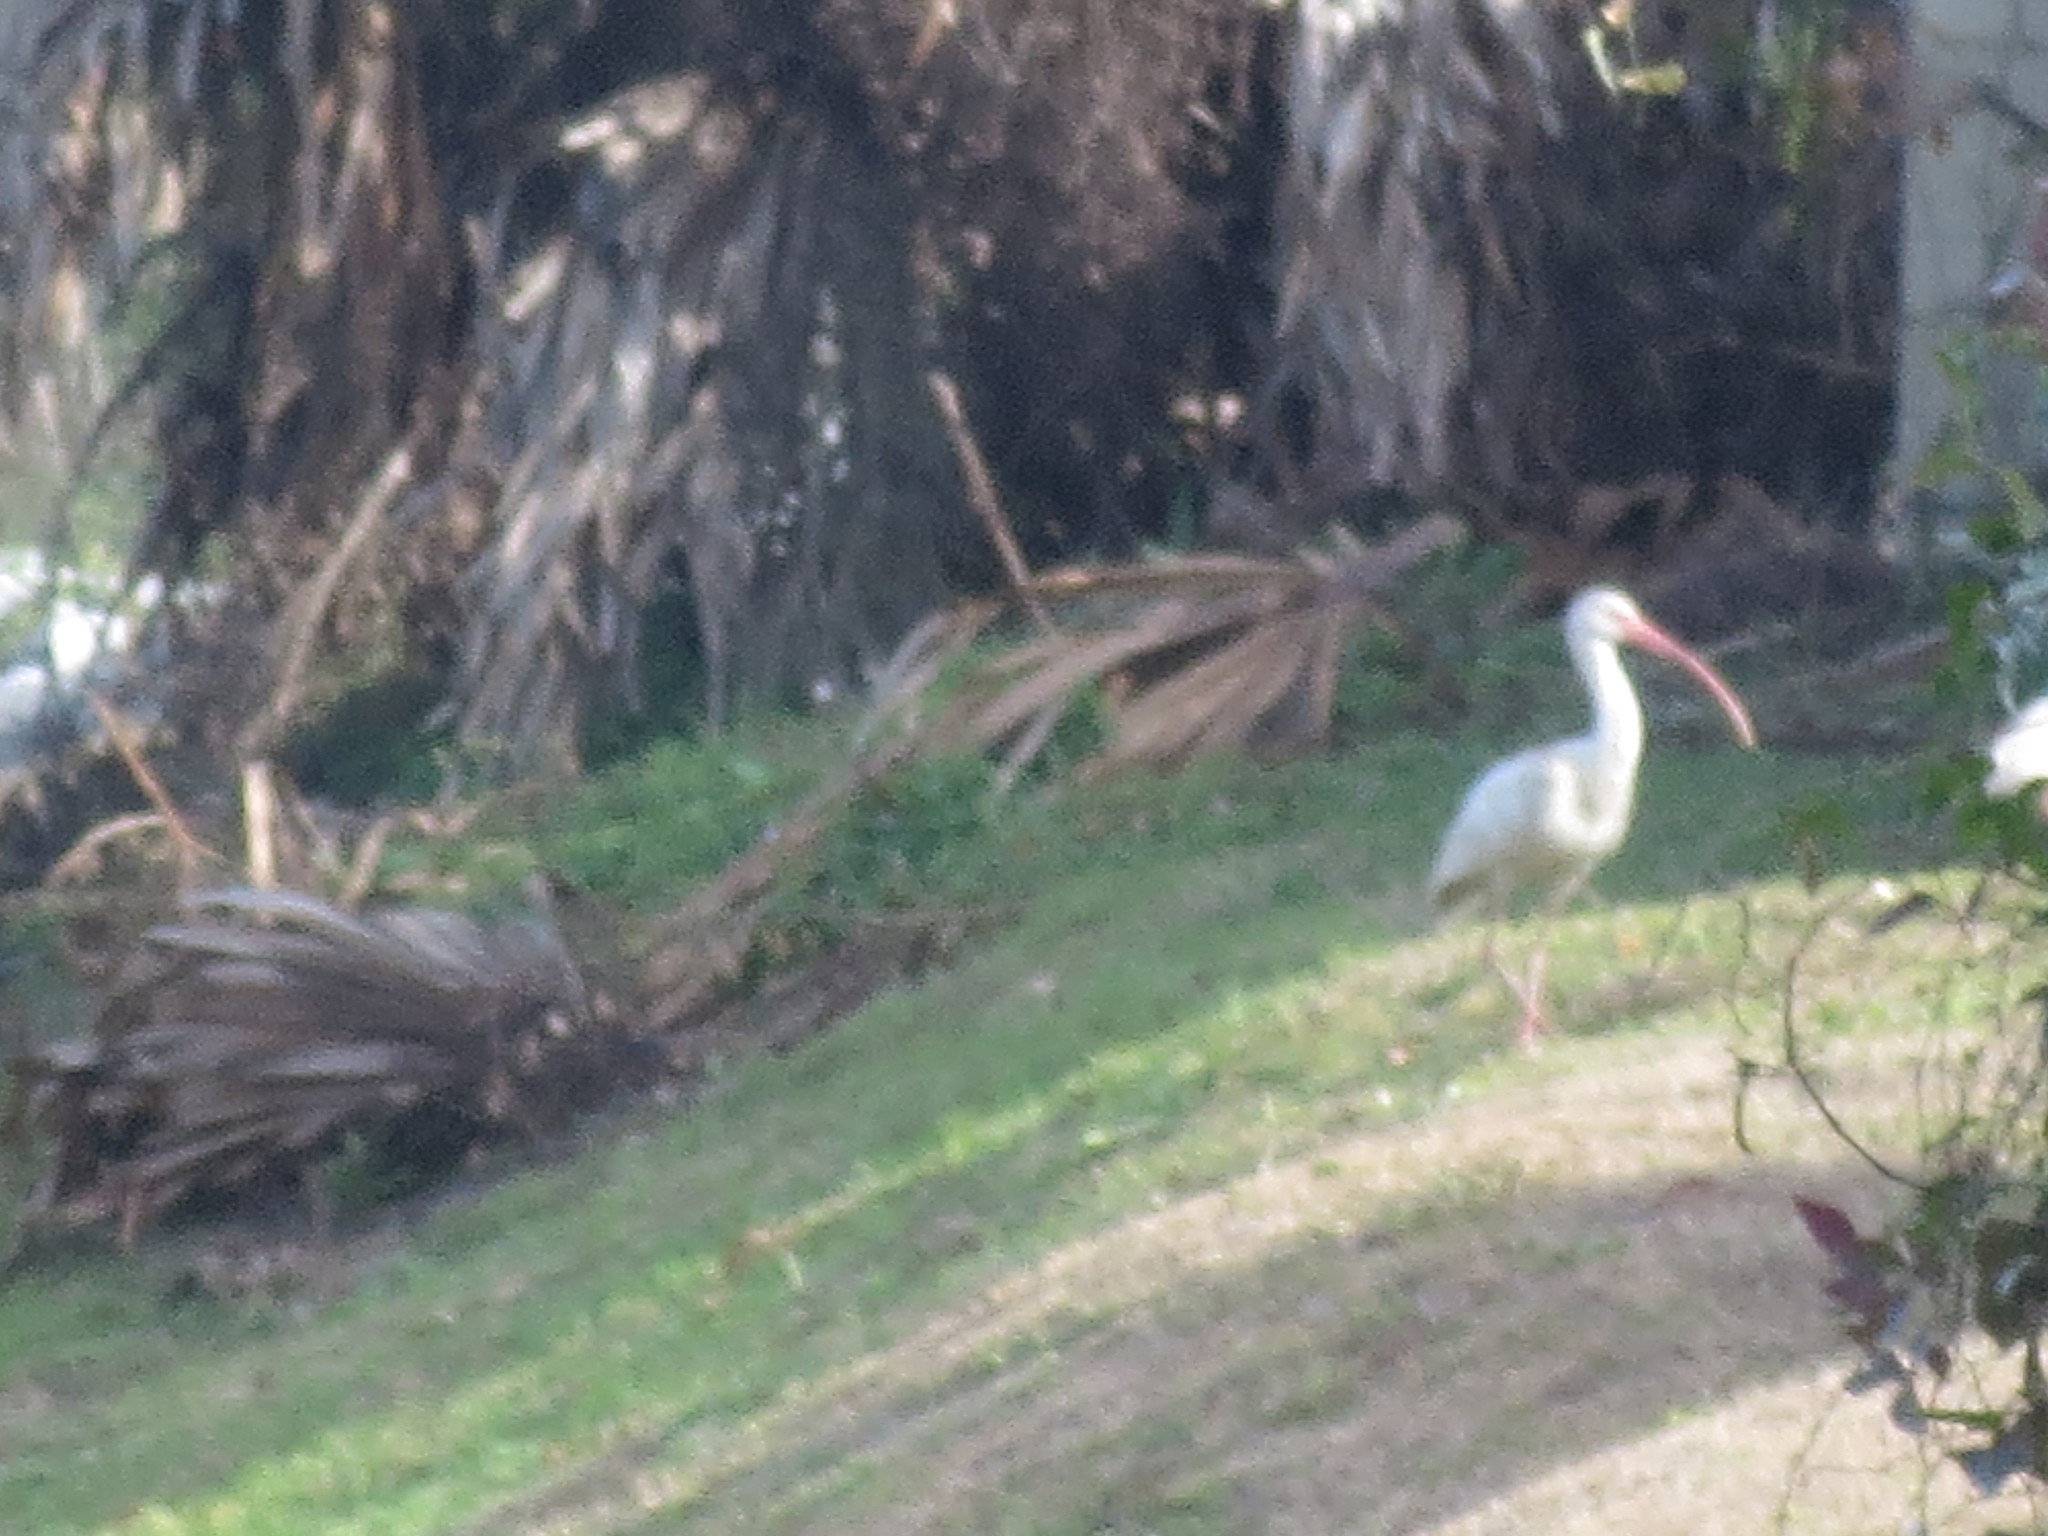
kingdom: Animalia
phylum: Chordata
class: Aves
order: Pelecaniformes
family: Threskiornithidae
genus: Eudocimus
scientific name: Eudocimus albus
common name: White ibis
